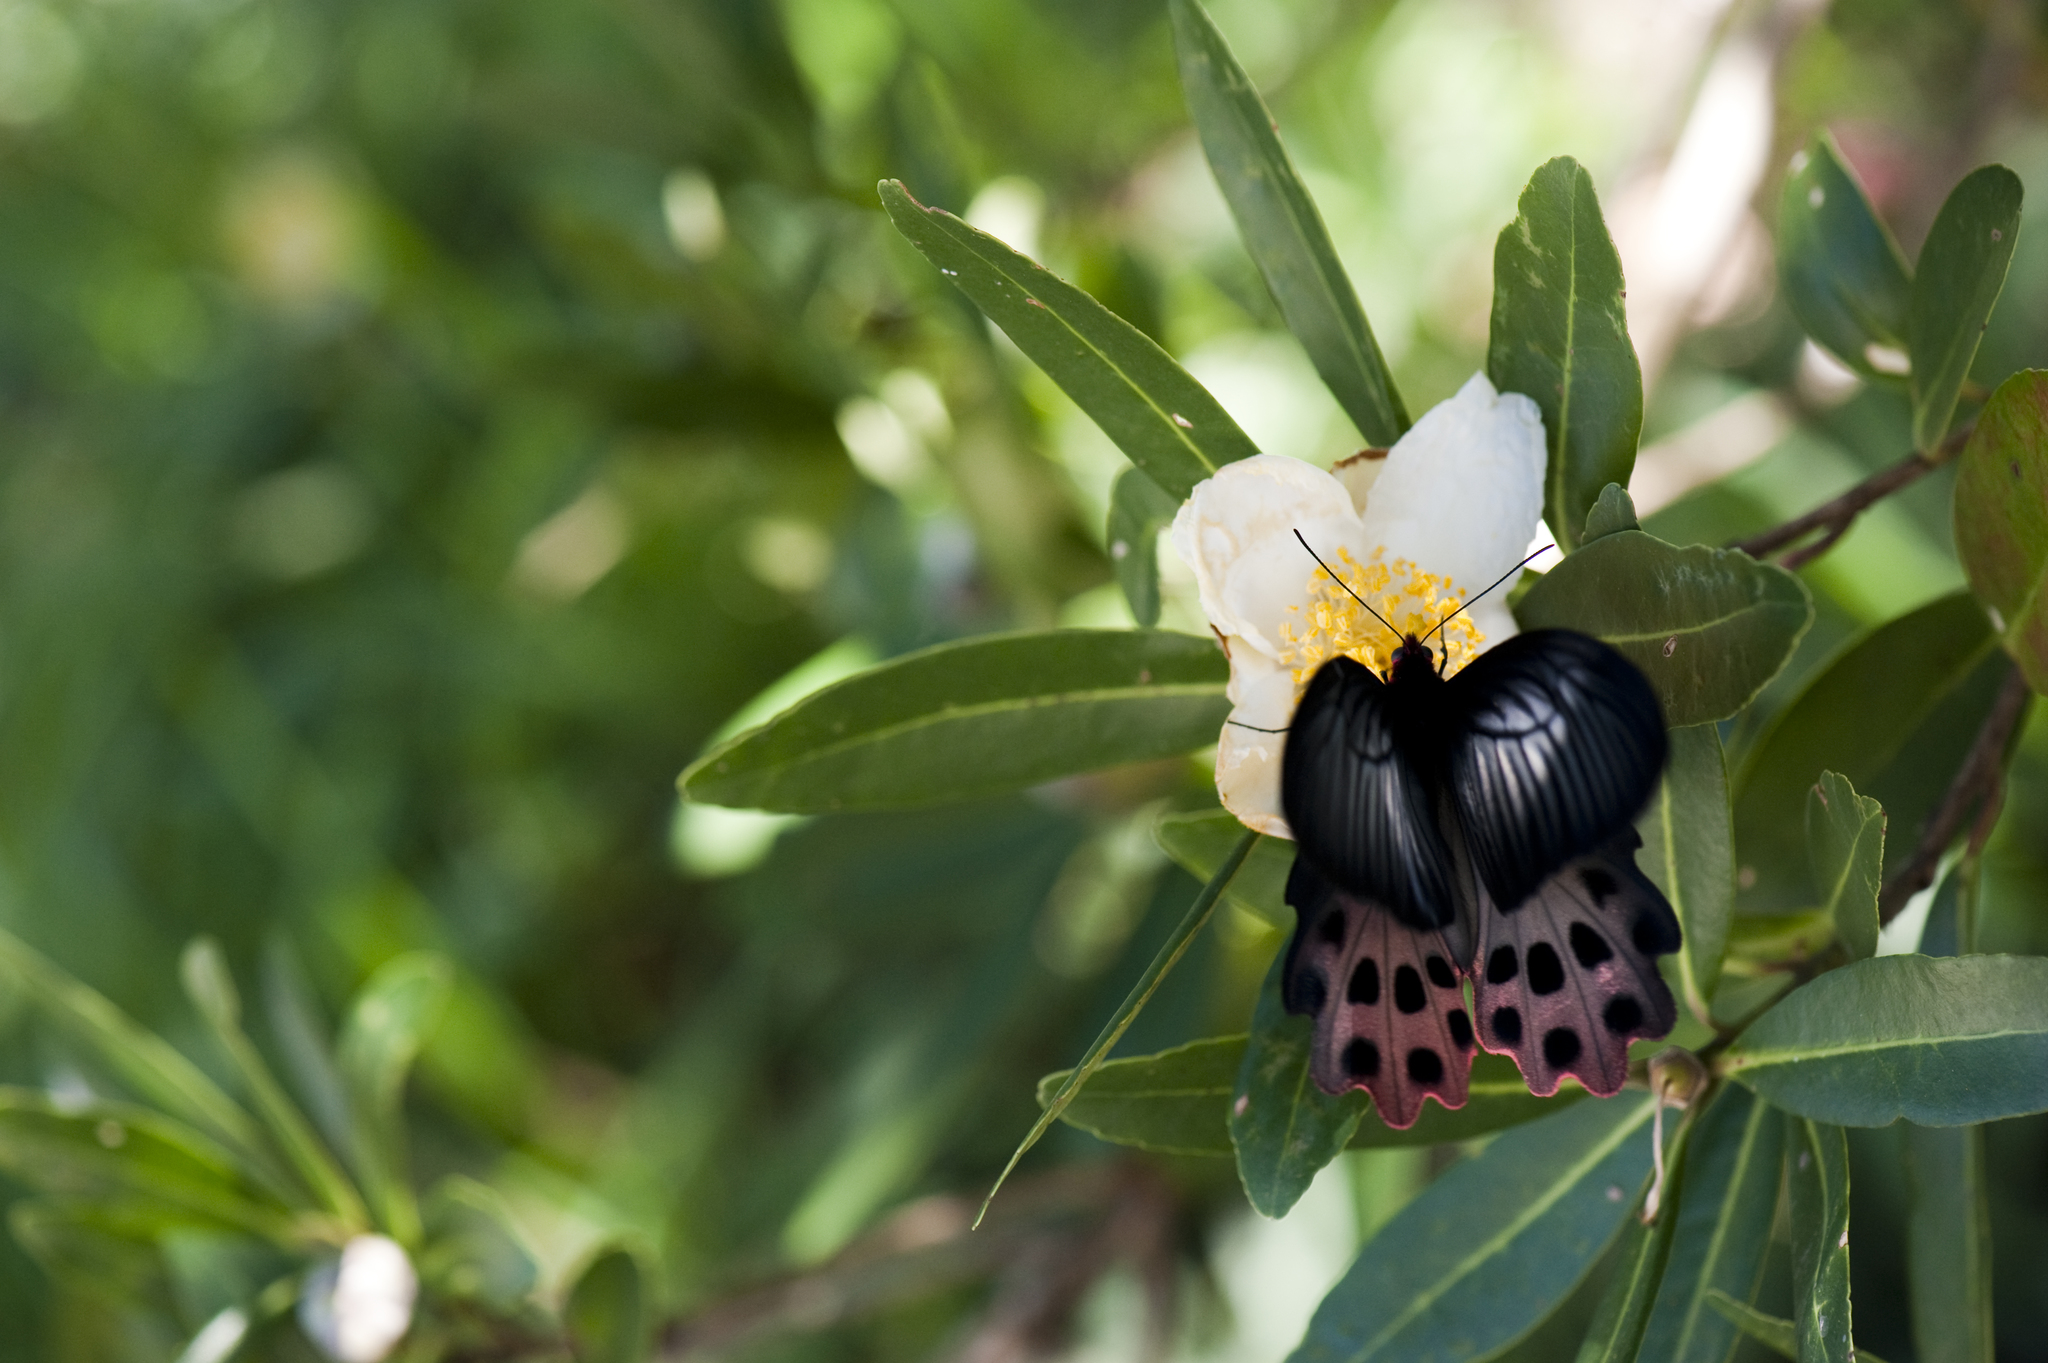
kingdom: Animalia
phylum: Arthropoda
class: Insecta
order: Lepidoptera
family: Papilionidae
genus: Atrophaneura
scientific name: Atrophaneura horishanus
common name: Aurora swallowtail
